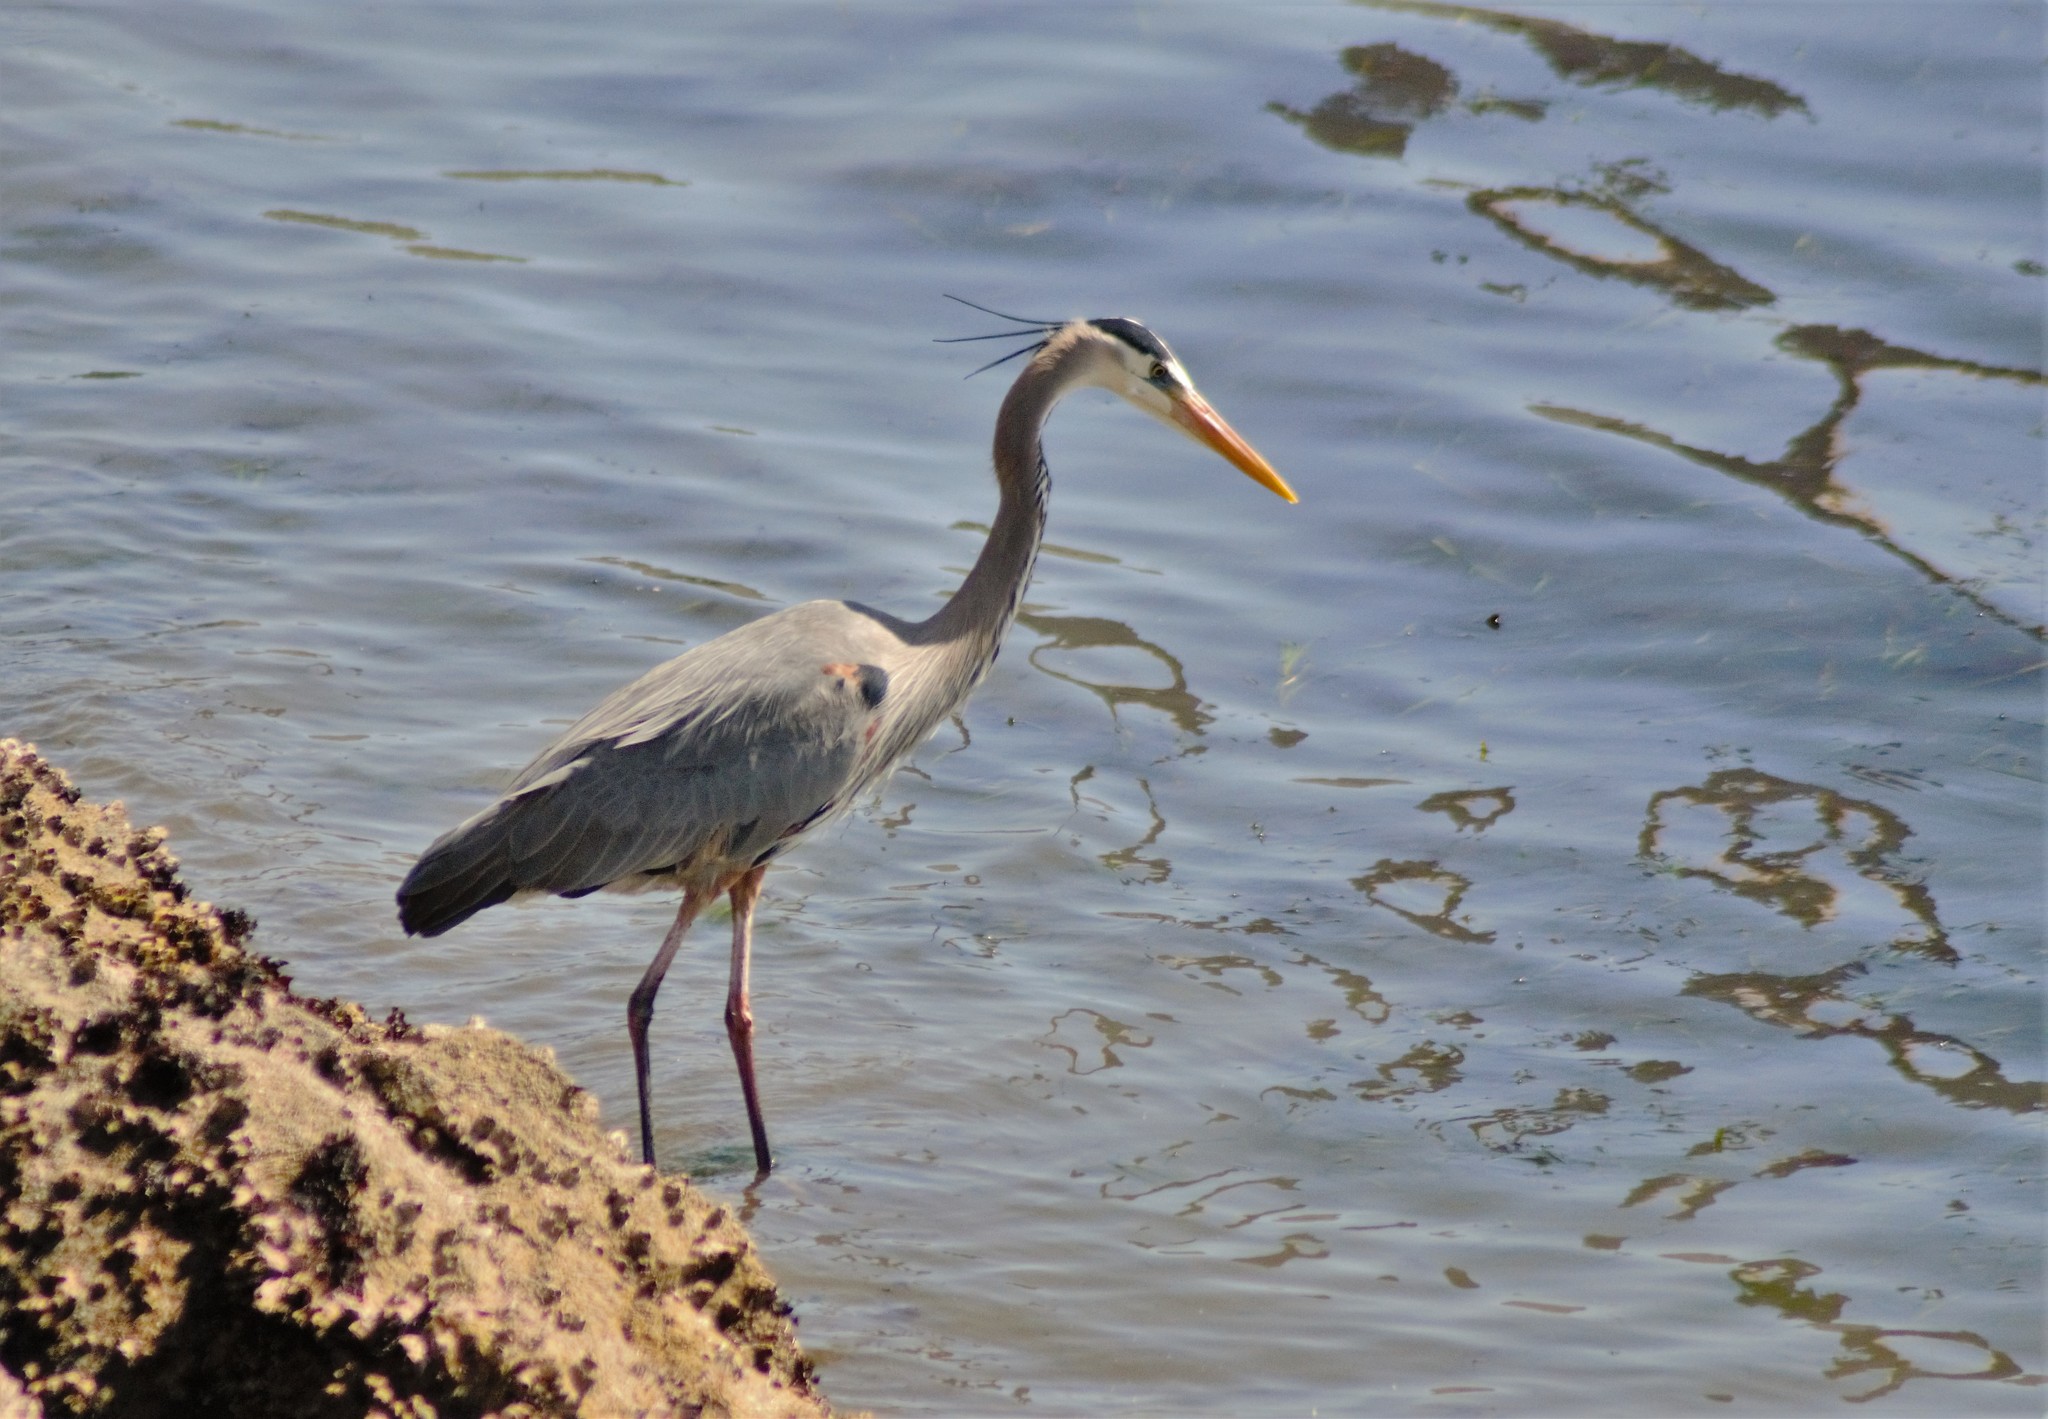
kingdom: Animalia
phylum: Chordata
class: Aves
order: Pelecaniformes
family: Ardeidae
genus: Ardea
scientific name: Ardea herodias
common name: Great blue heron
